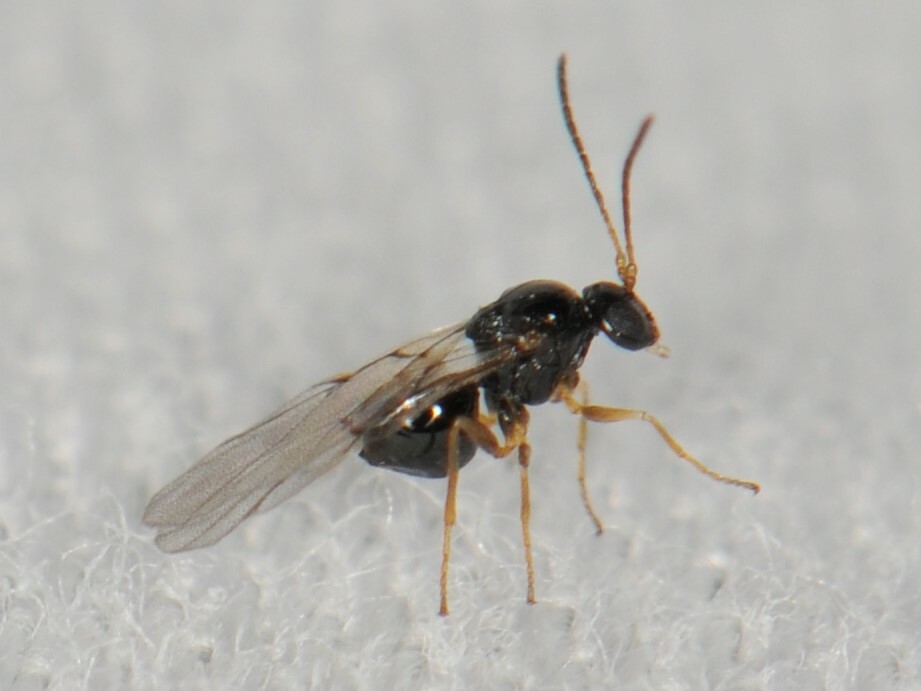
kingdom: Animalia
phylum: Arthropoda
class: Insecta
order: Hymenoptera
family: Cynipidae
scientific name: Cynipidae
